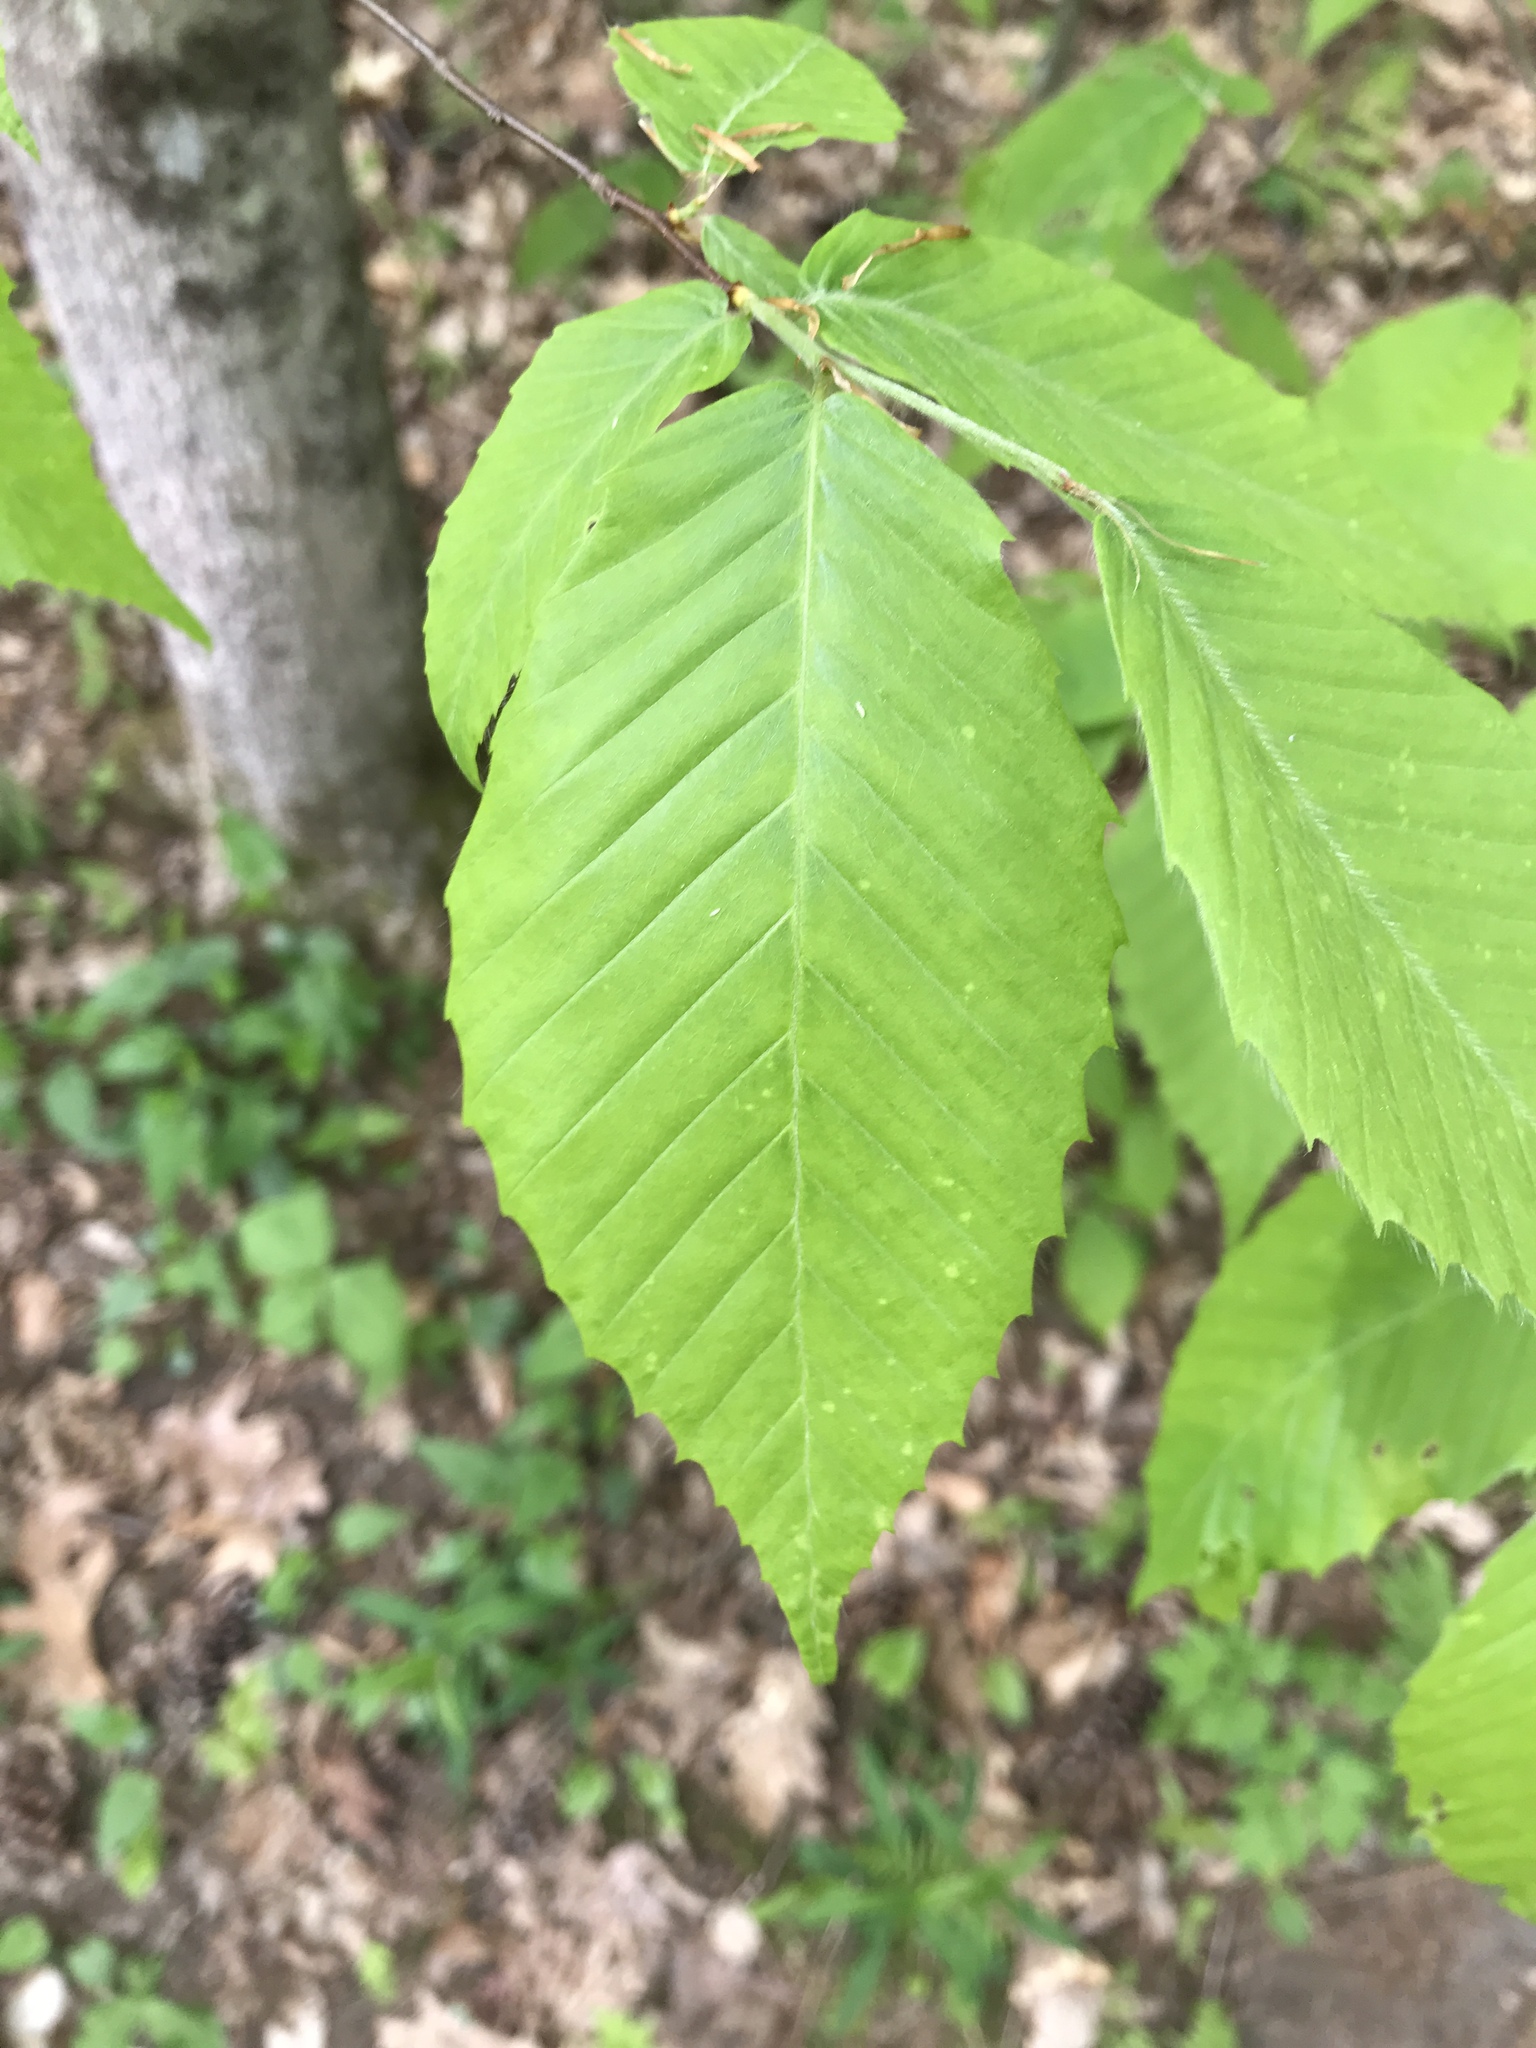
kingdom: Plantae
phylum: Tracheophyta
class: Magnoliopsida
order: Fagales
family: Fagaceae
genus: Fagus
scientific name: Fagus grandifolia
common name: American beech
